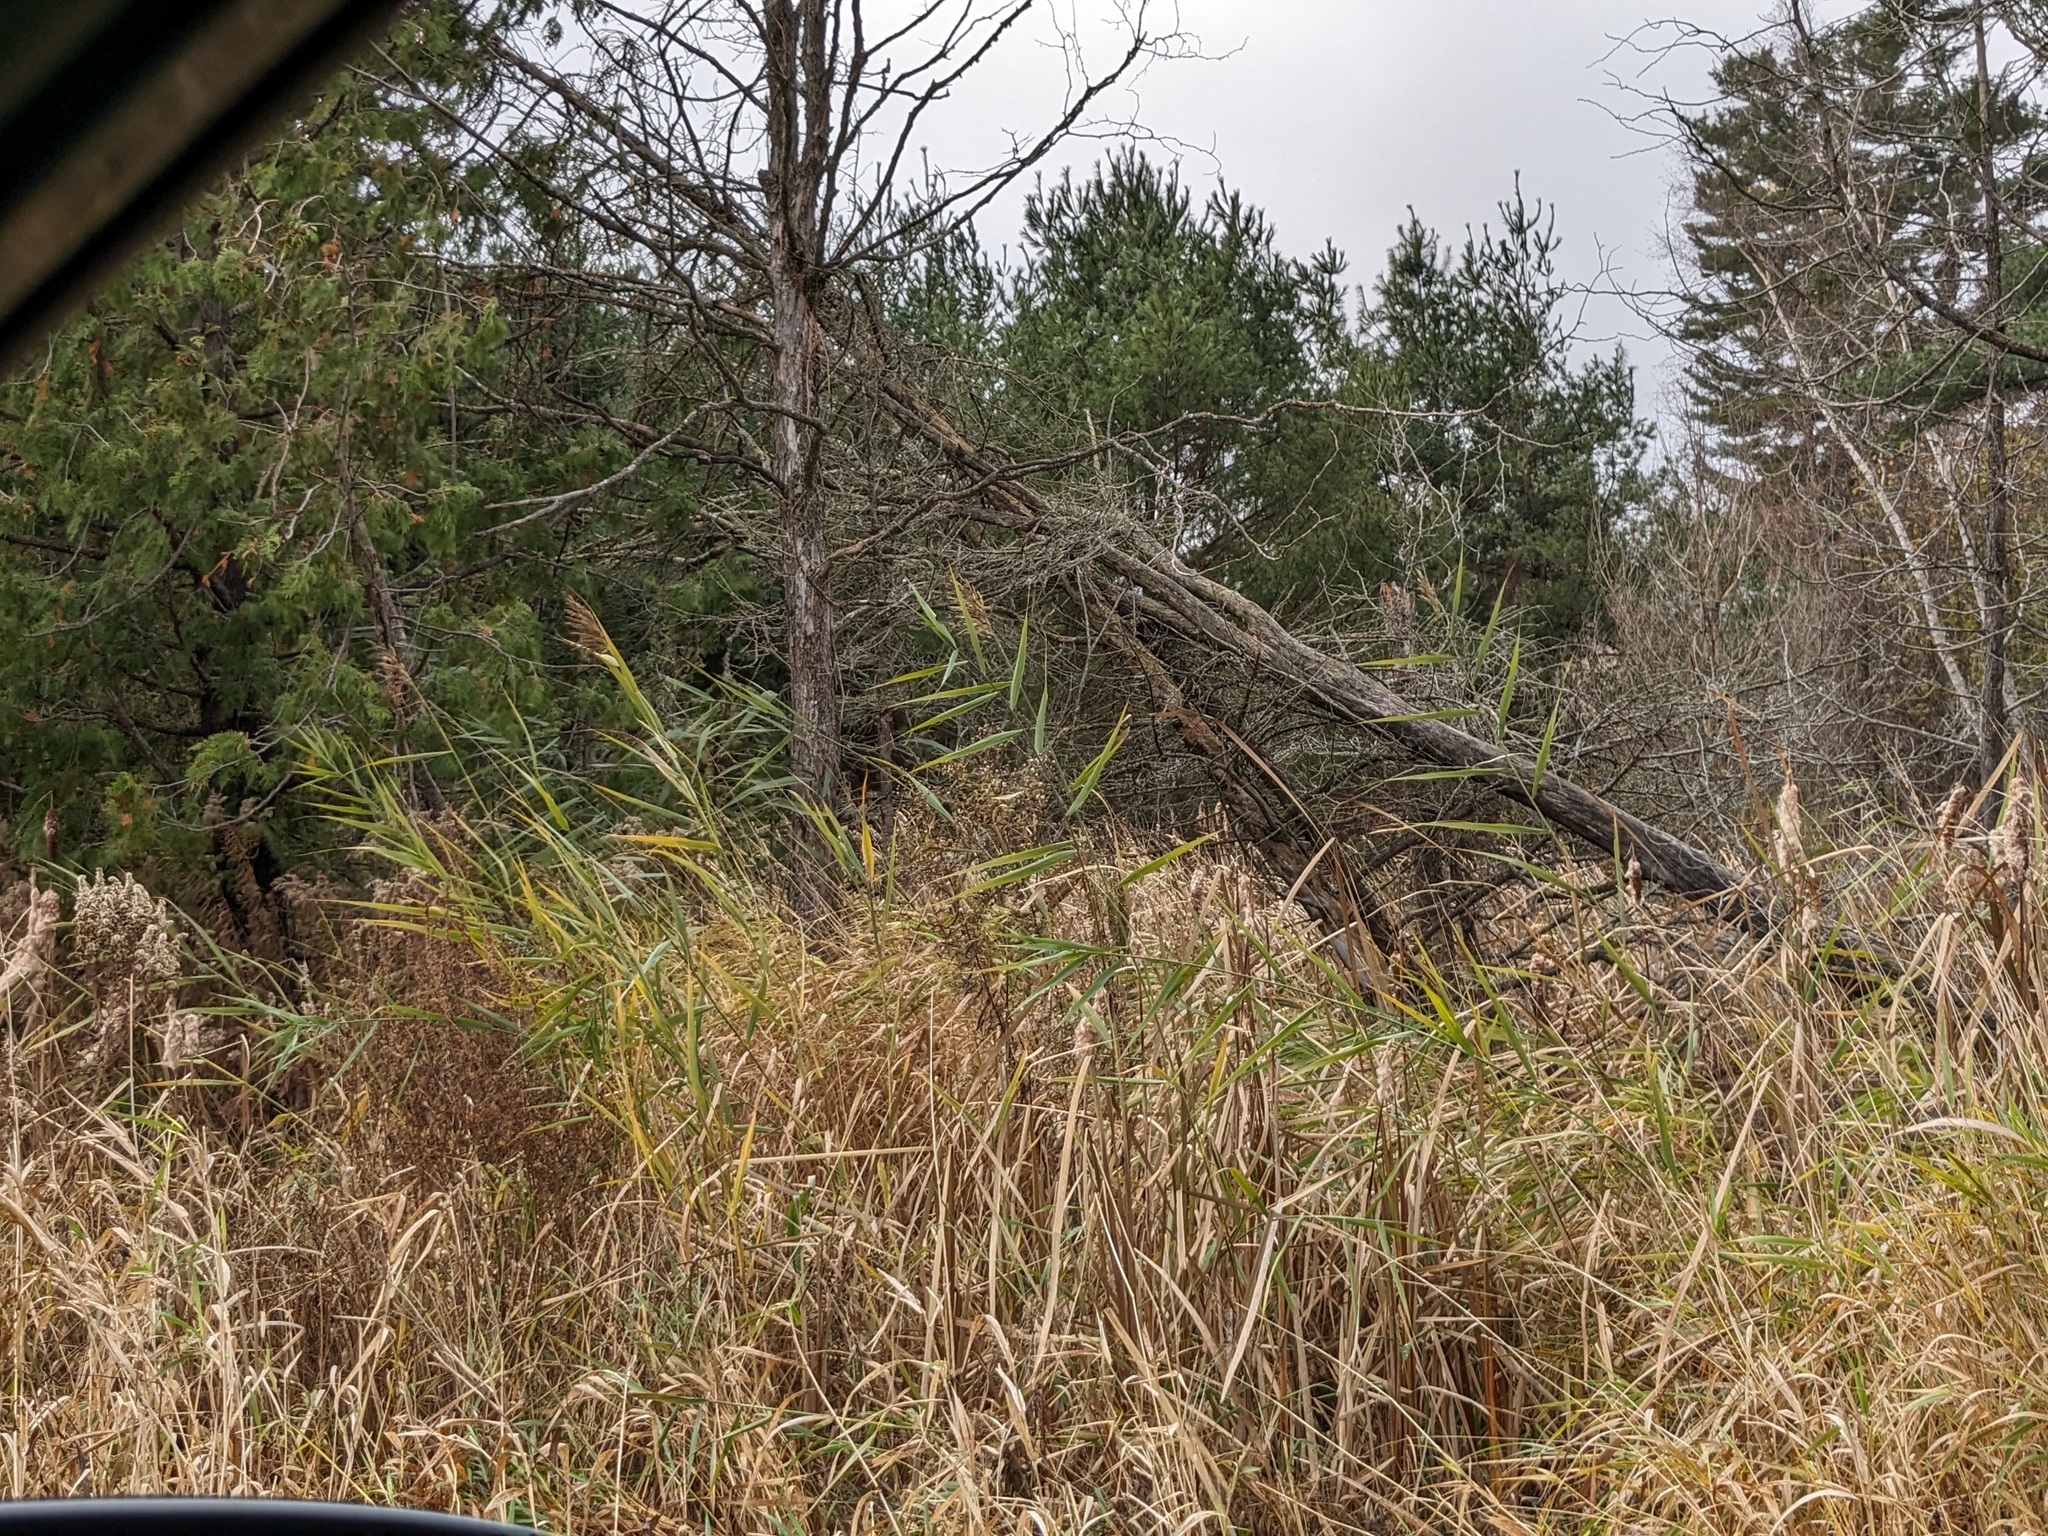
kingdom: Plantae
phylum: Tracheophyta
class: Liliopsida
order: Poales
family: Poaceae
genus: Phragmites
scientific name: Phragmites australis
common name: Common reed
